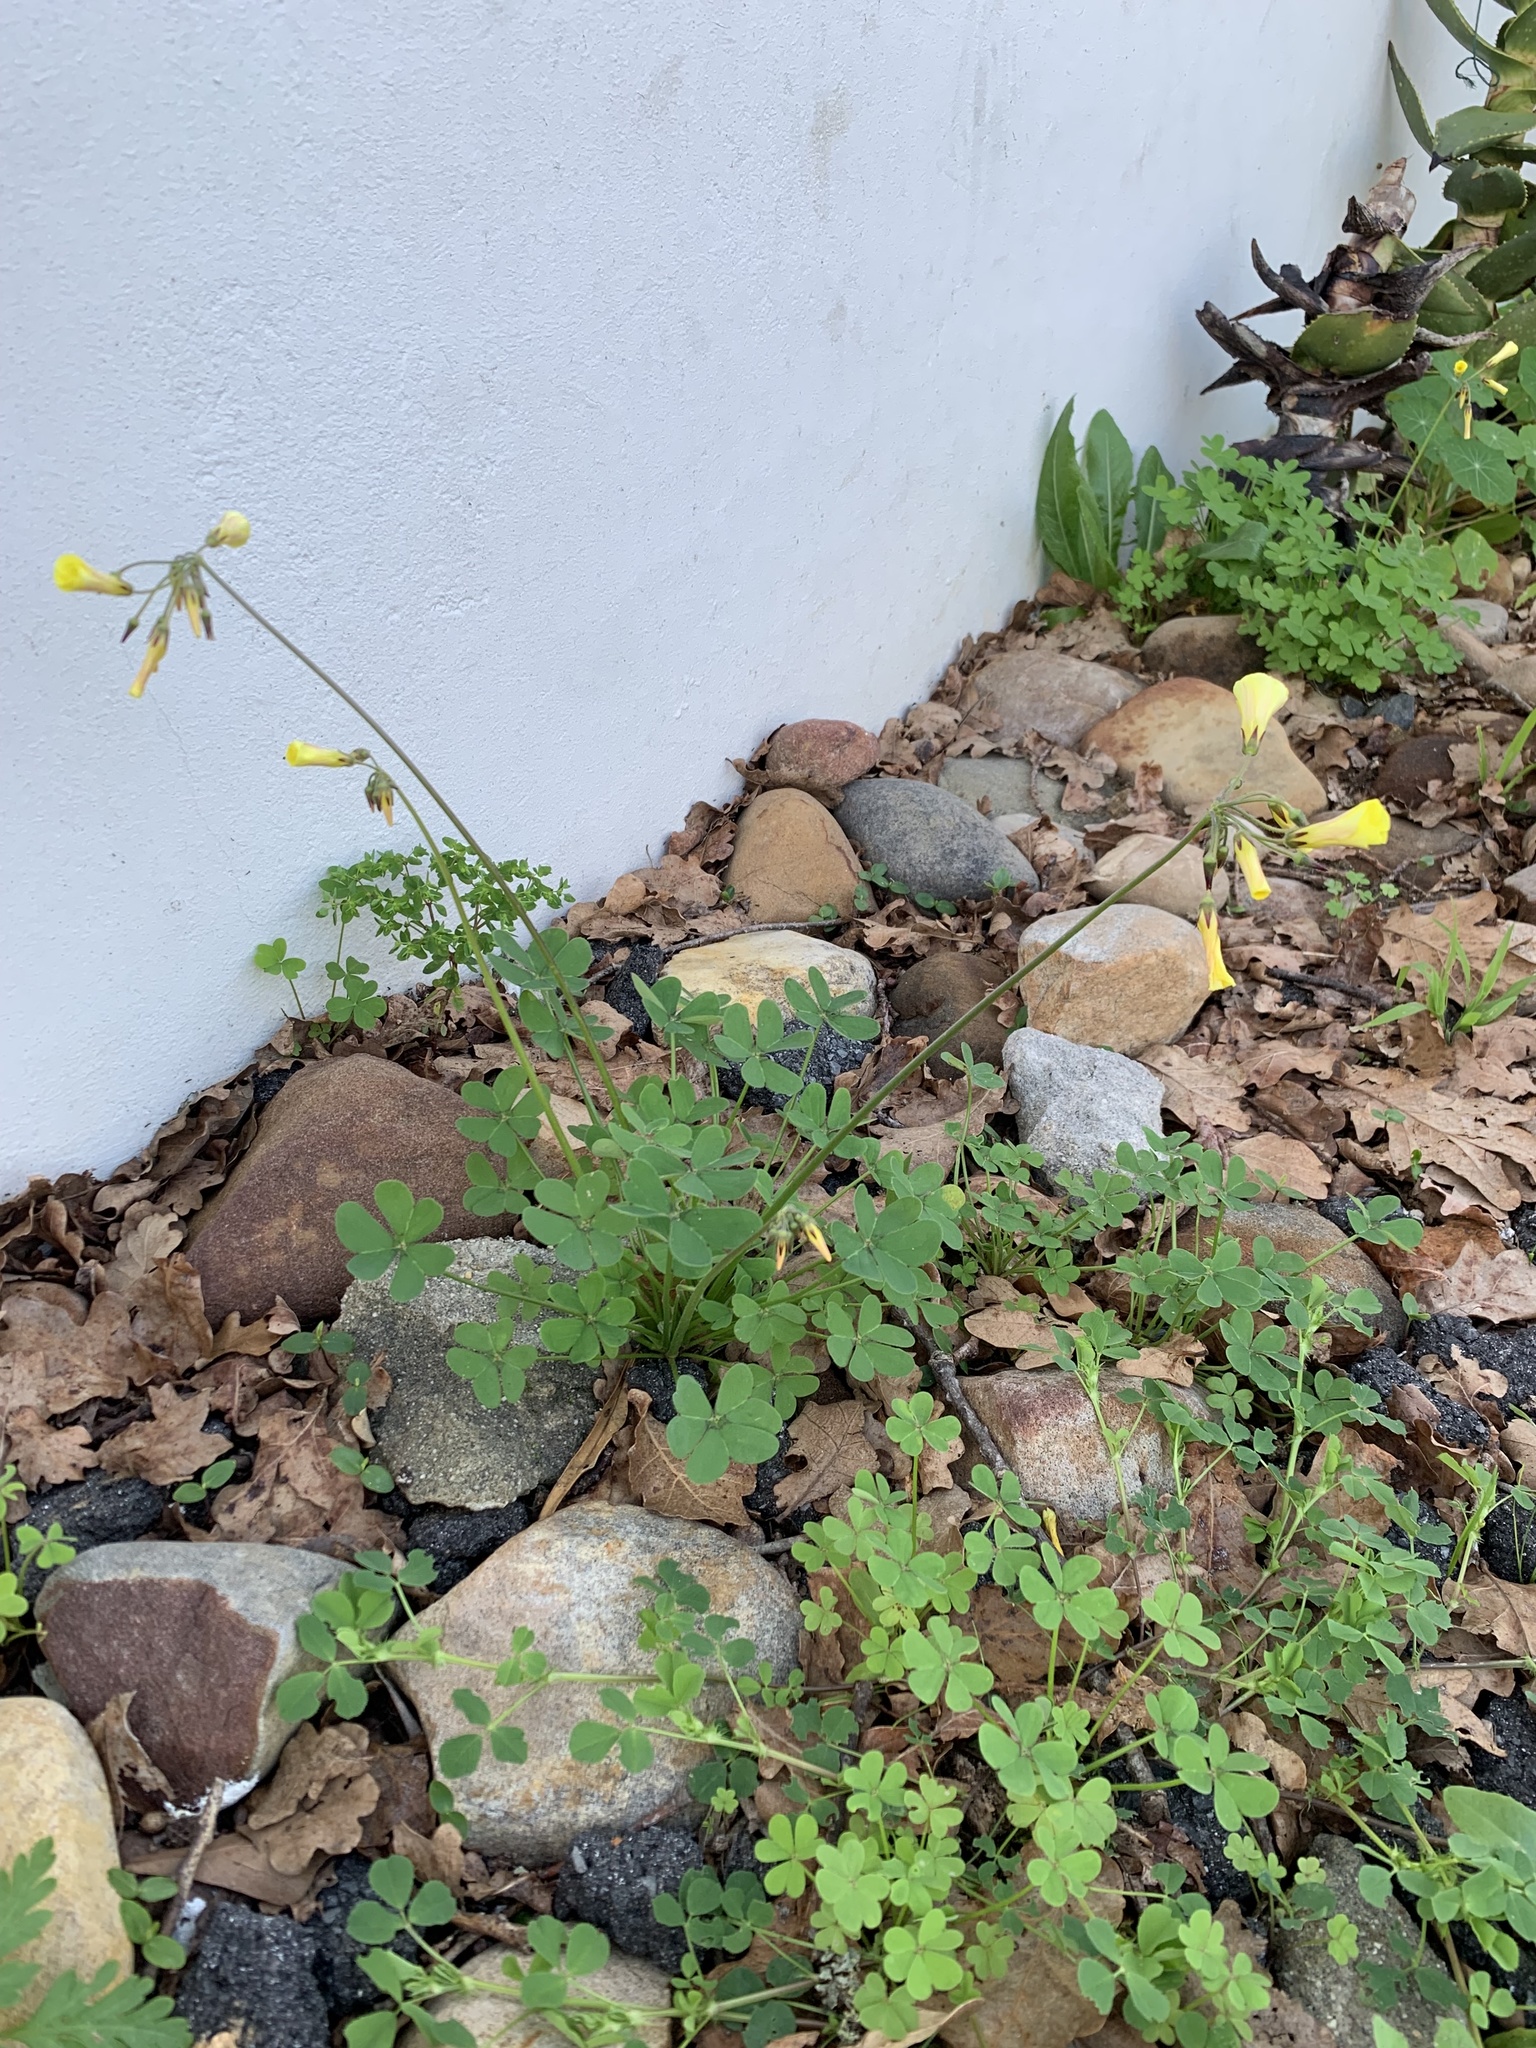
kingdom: Plantae
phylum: Tracheophyta
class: Magnoliopsida
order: Oxalidales
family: Oxalidaceae
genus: Oxalis
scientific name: Oxalis pes-caprae
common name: Bermuda-buttercup
